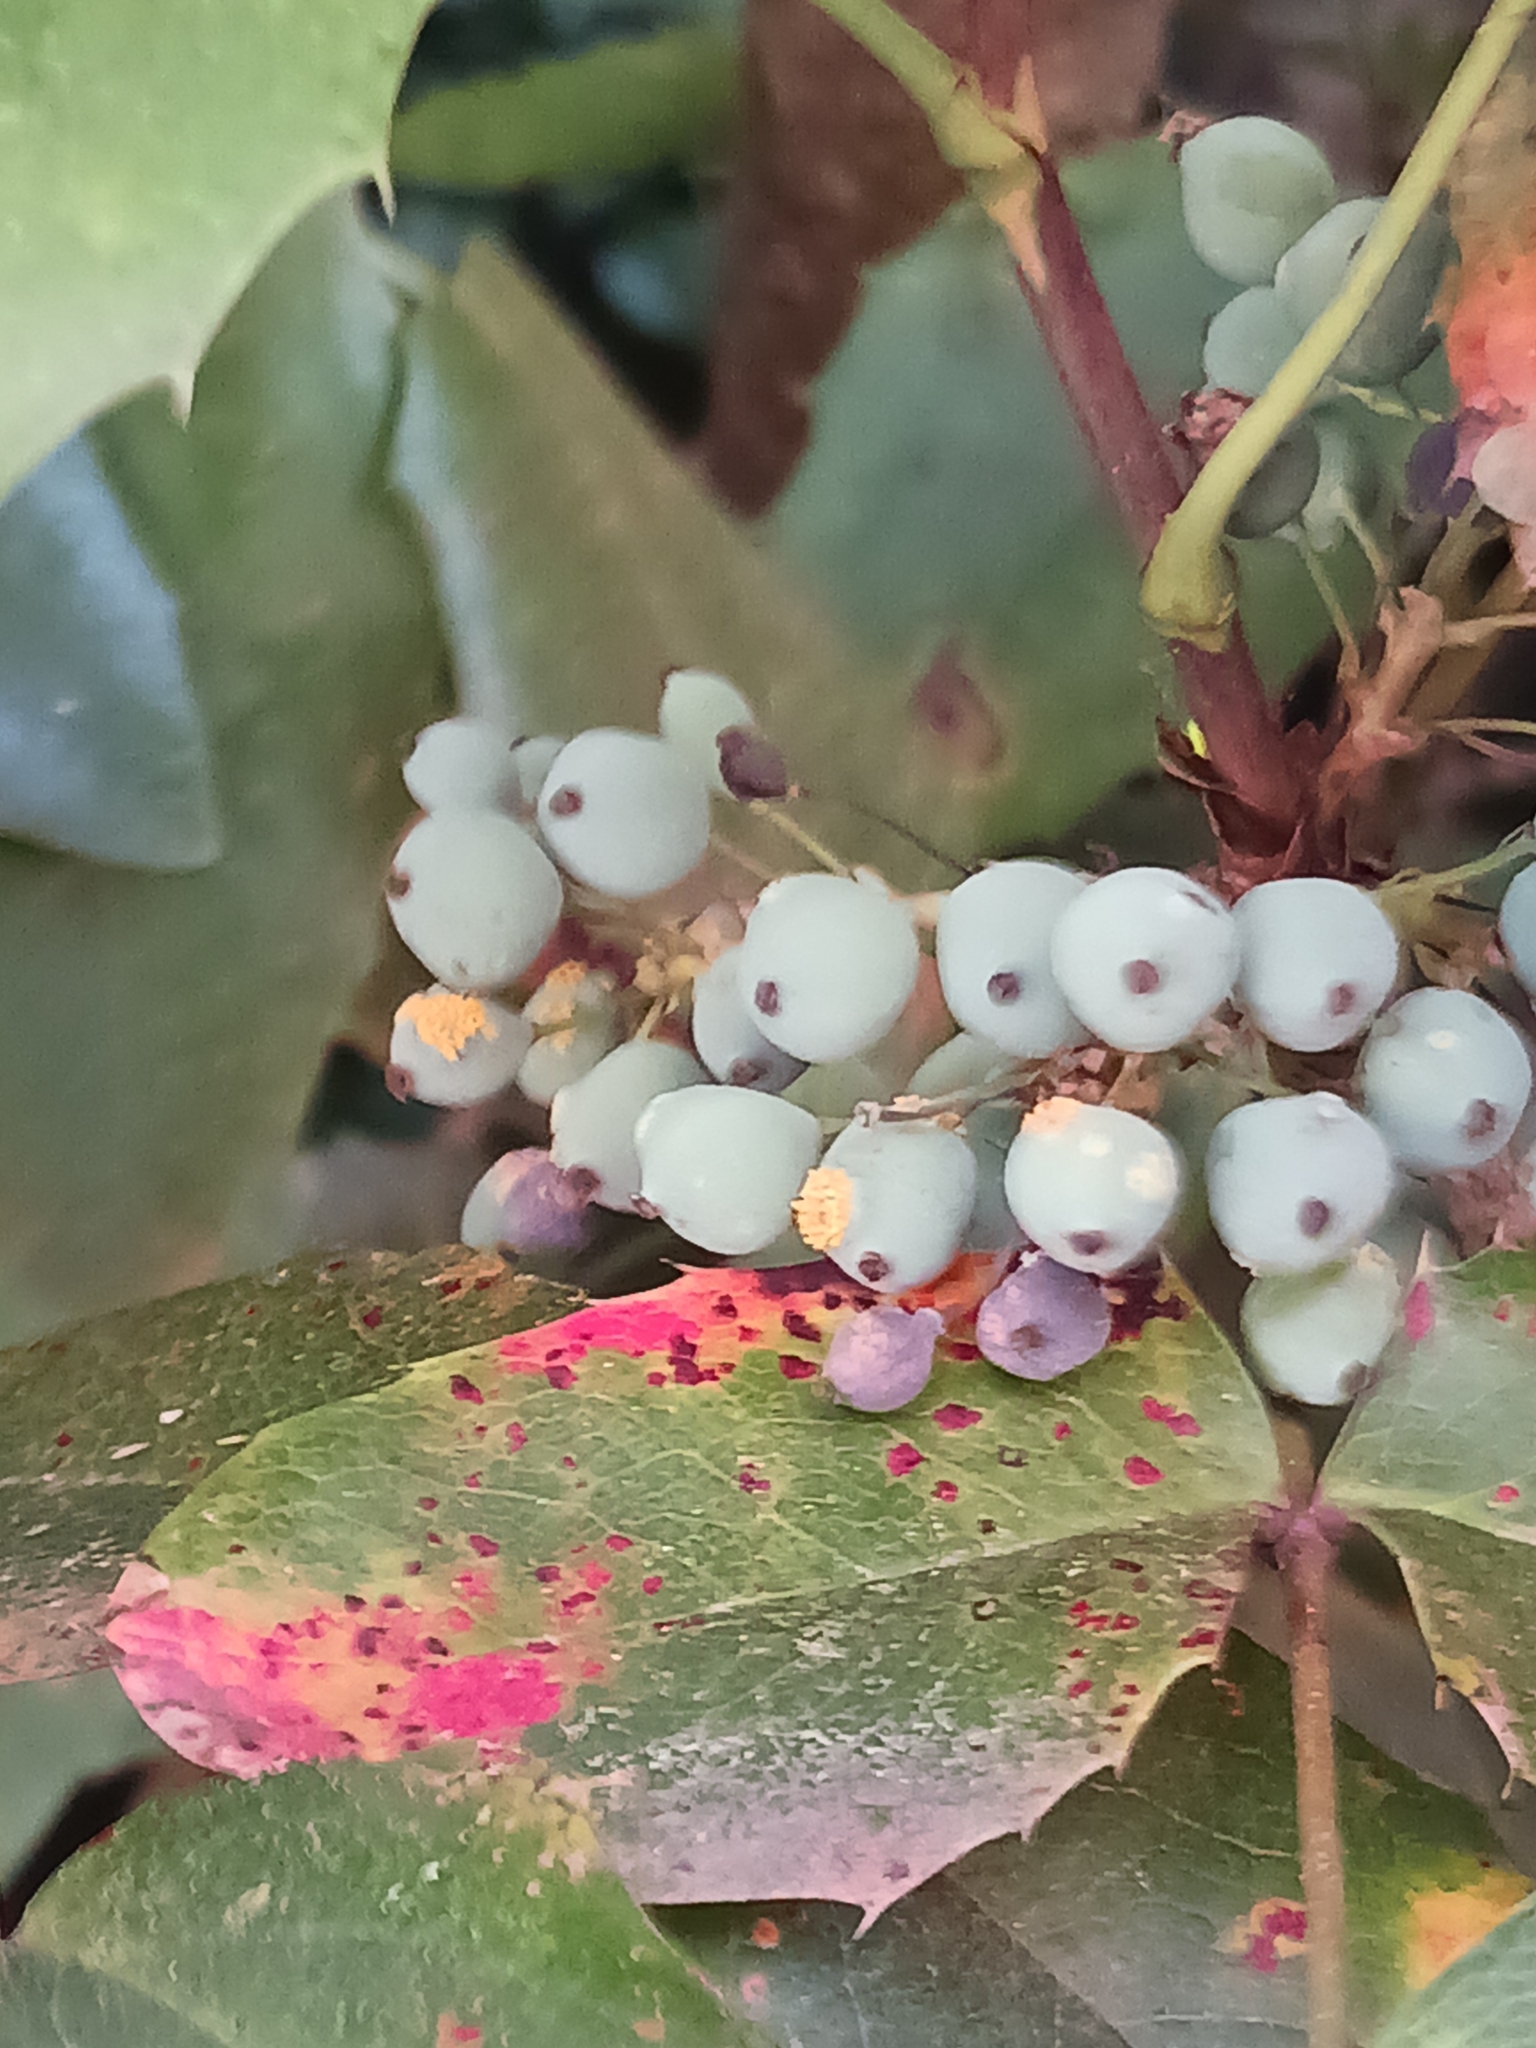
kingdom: Fungi
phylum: Basidiomycota
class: Pucciniomycetes
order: Pucciniales
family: Pucciniaceae
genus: Cumminsiella
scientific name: Cumminsiella mirabilissima
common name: Mahonia rust
